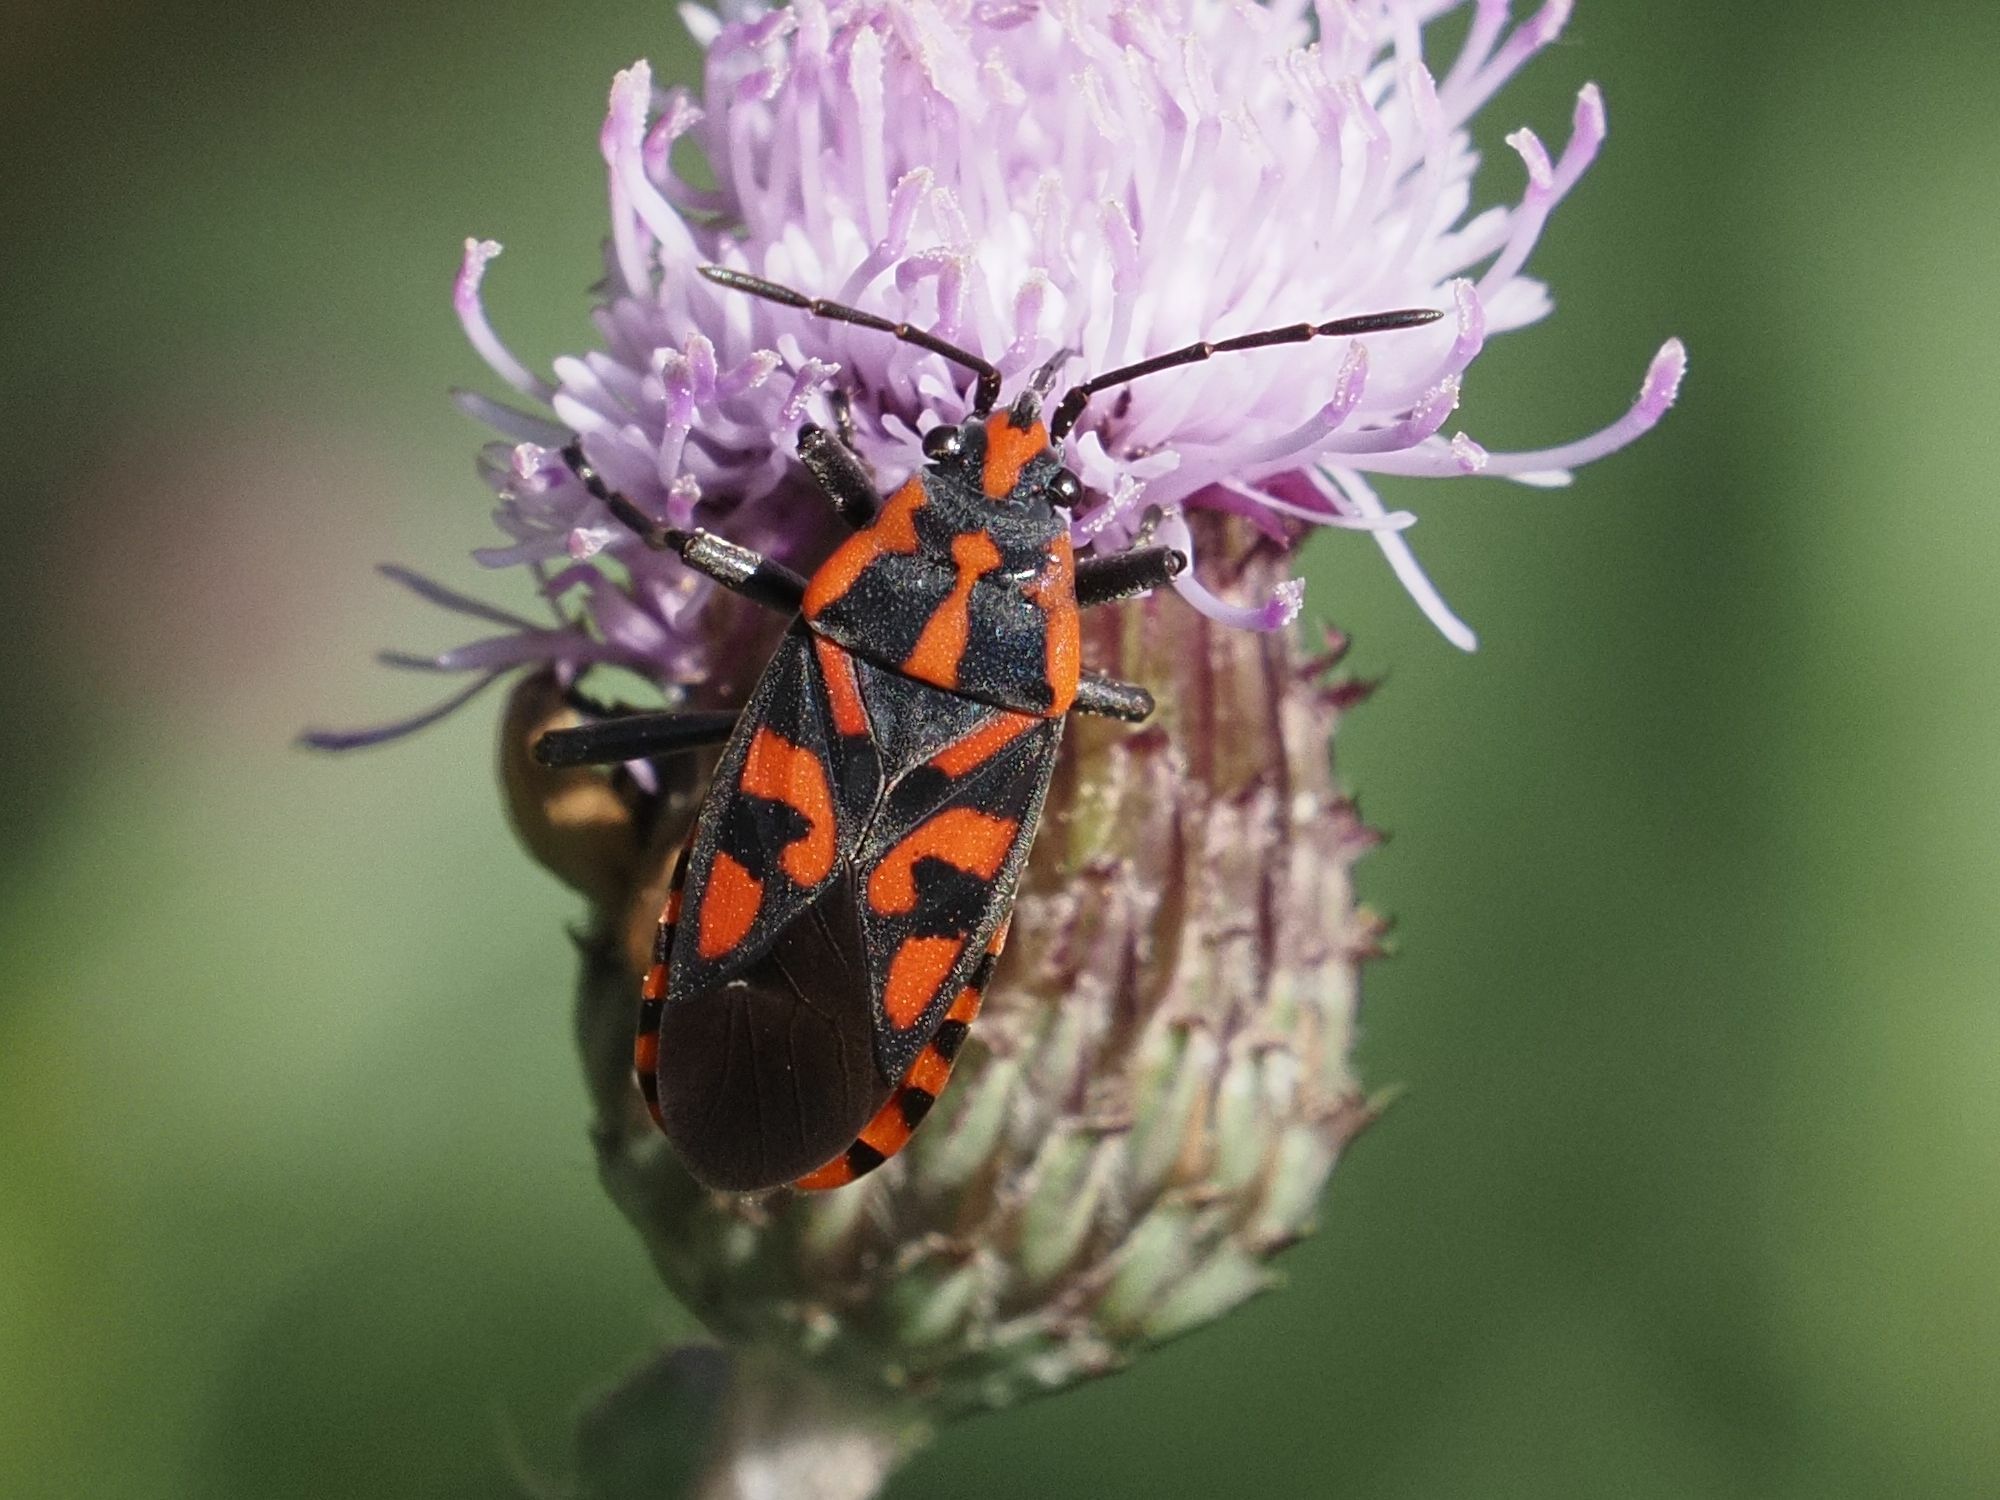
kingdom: Animalia
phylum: Arthropoda
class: Insecta
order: Hemiptera
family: Lygaeidae
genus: Spilostethus
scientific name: Spilostethus saxatilis
